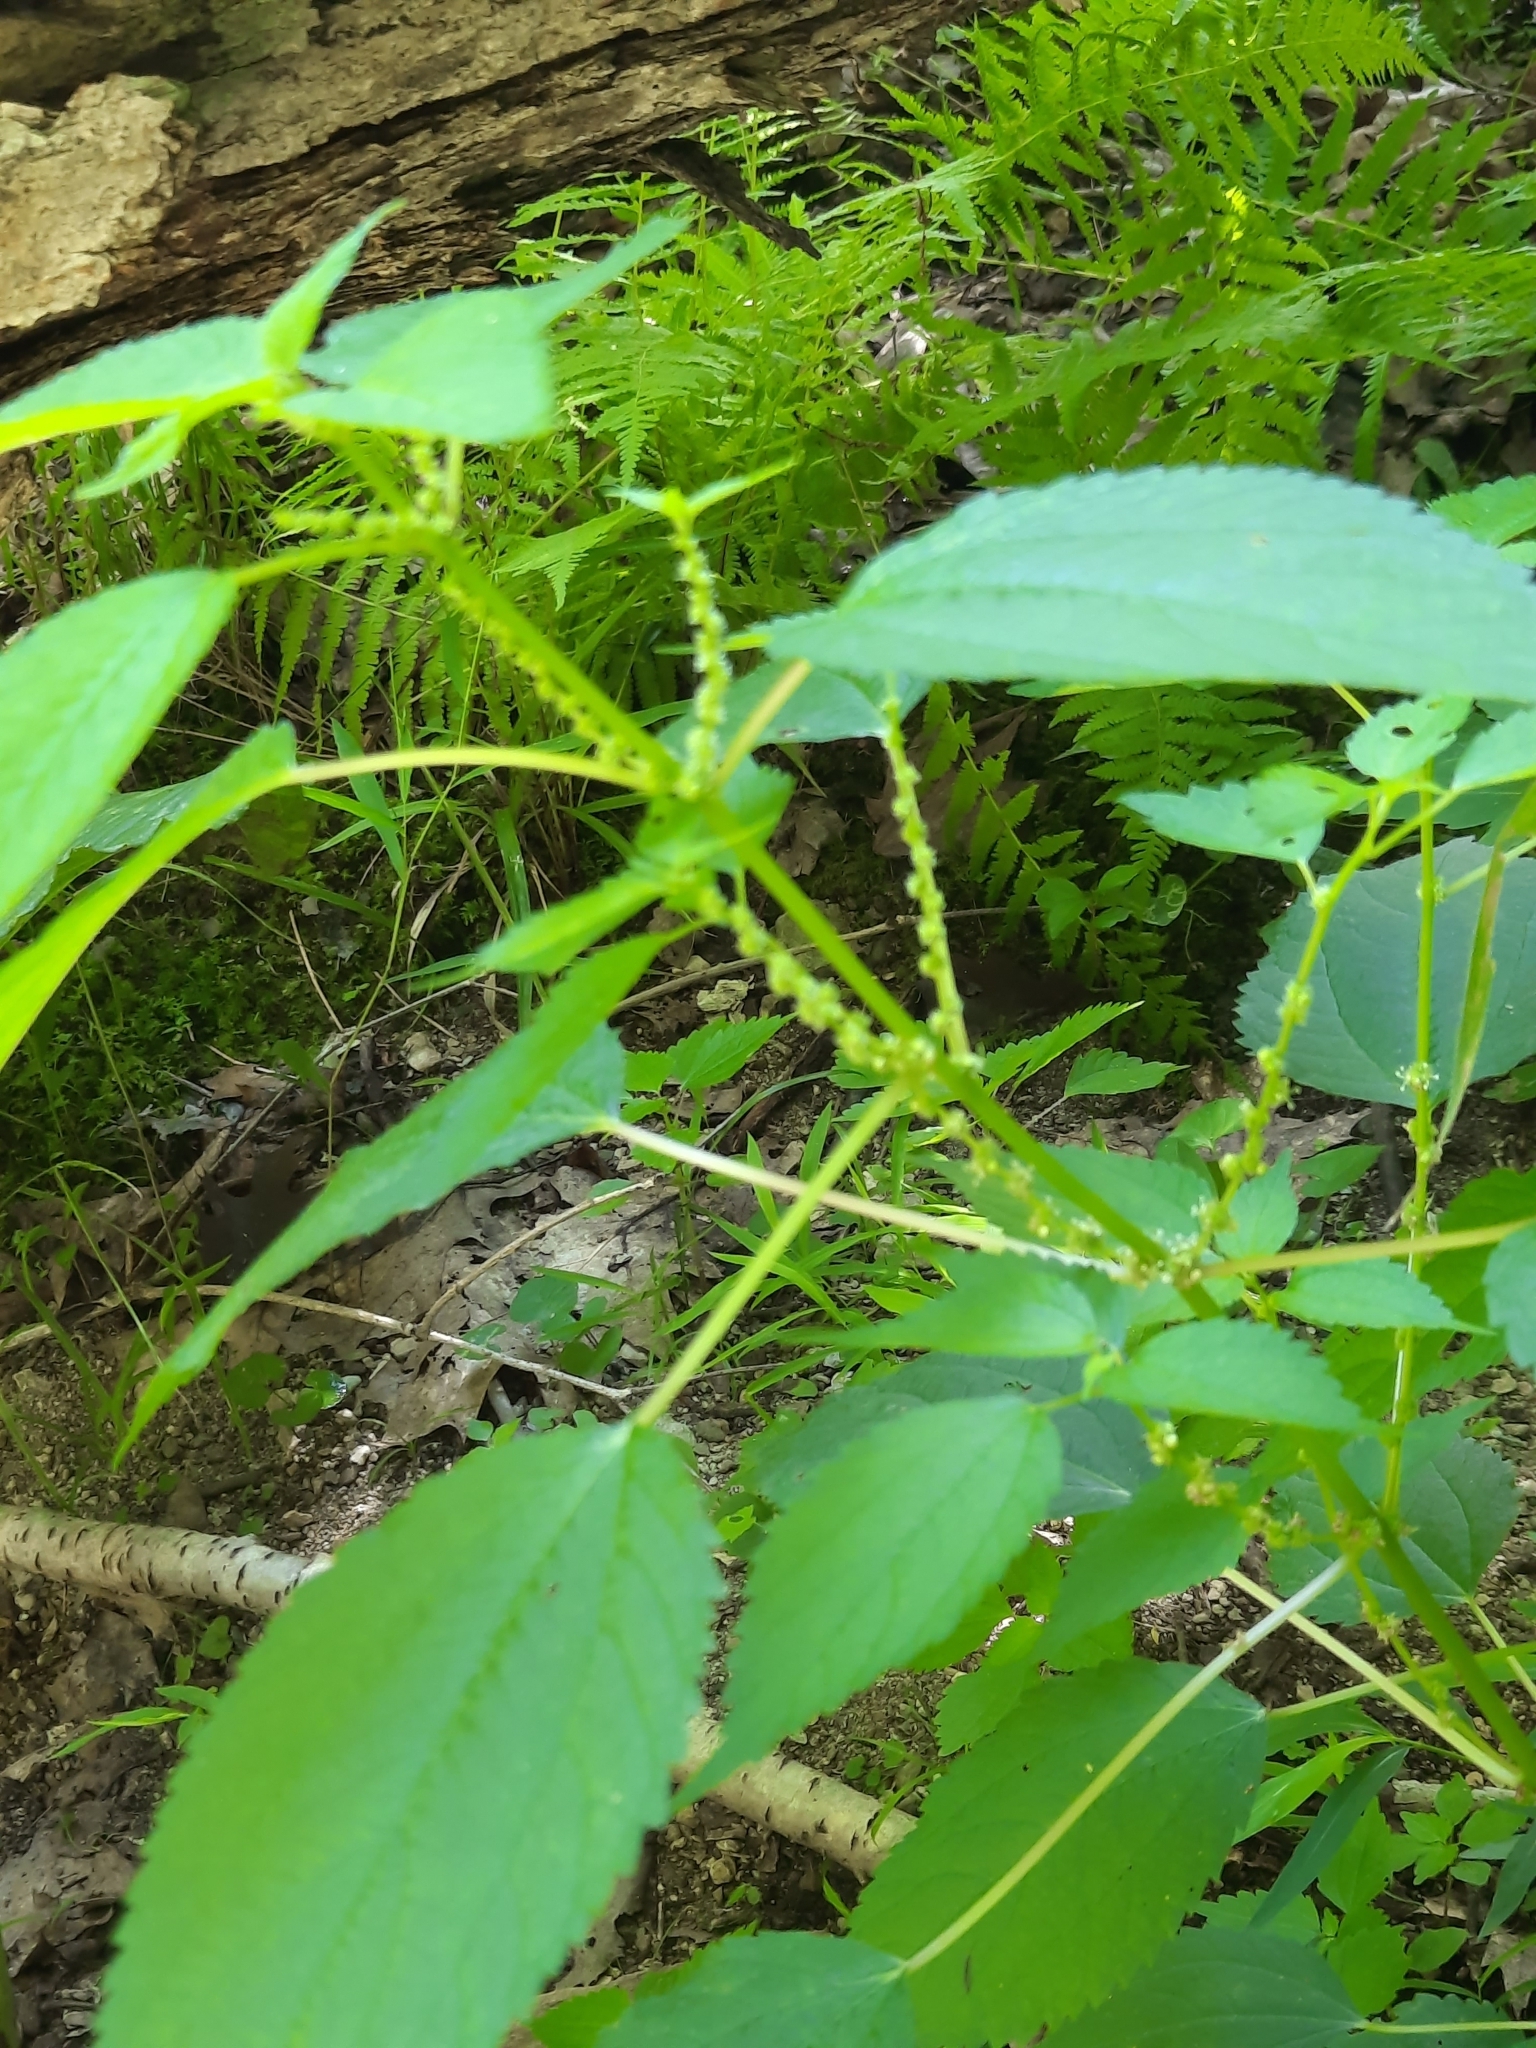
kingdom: Plantae
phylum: Tracheophyta
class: Magnoliopsida
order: Rosales
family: Urticaceae
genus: Boehmeria
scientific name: Boehmeria cylindrica
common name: Bog-hemp
